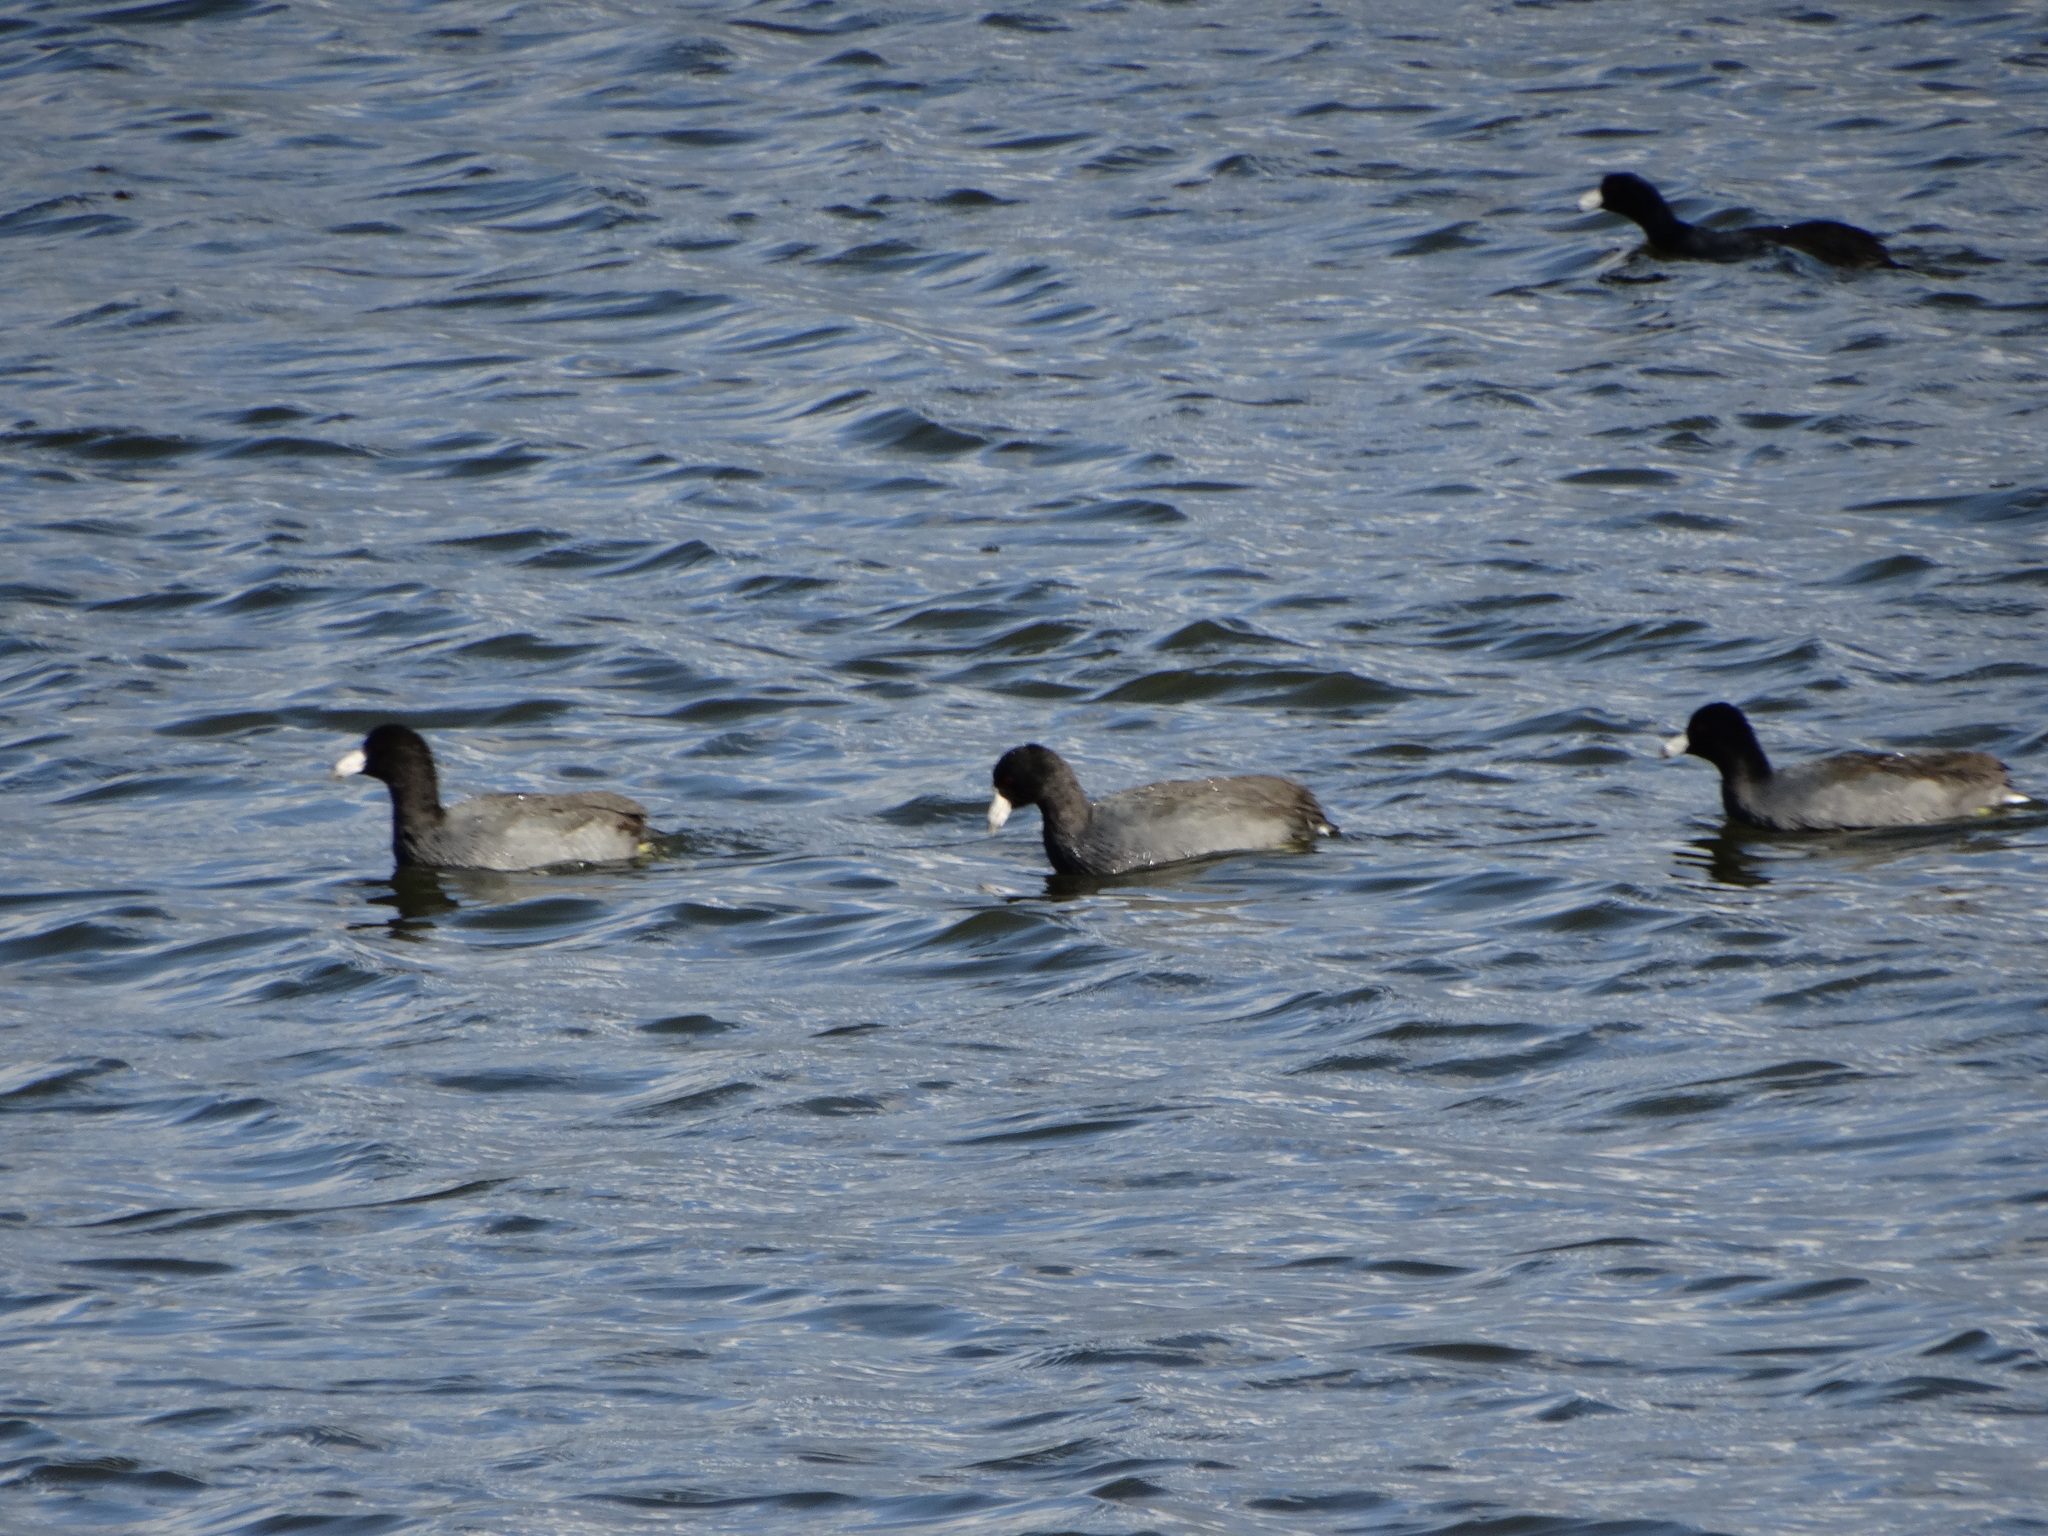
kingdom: Animalia
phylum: Chordata
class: Aves
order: Gruiformes
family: Rallidae
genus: Fulica
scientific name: Fulica americana
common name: American coot
